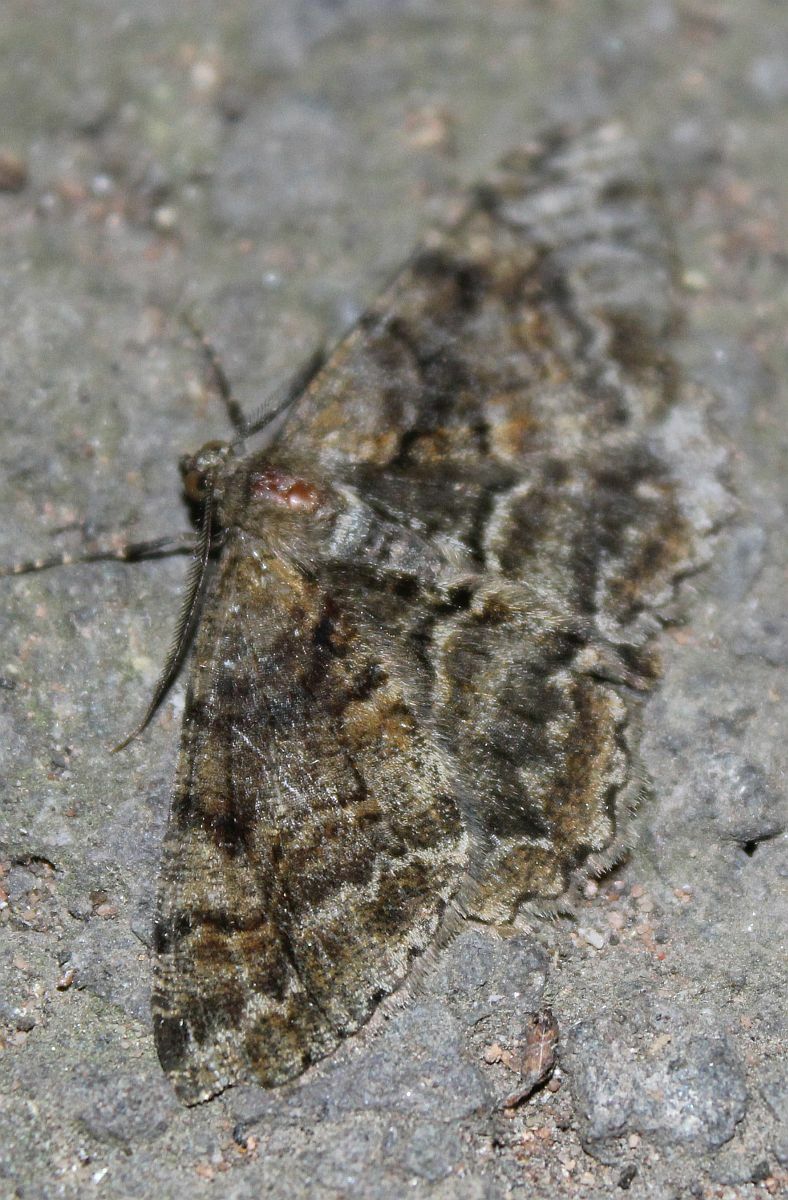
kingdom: Animalia
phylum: Arthropoda
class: Insecta
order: Lepidoptera
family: Geometridae
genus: Alcis
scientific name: Alcis repandata
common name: Mottled beauty
